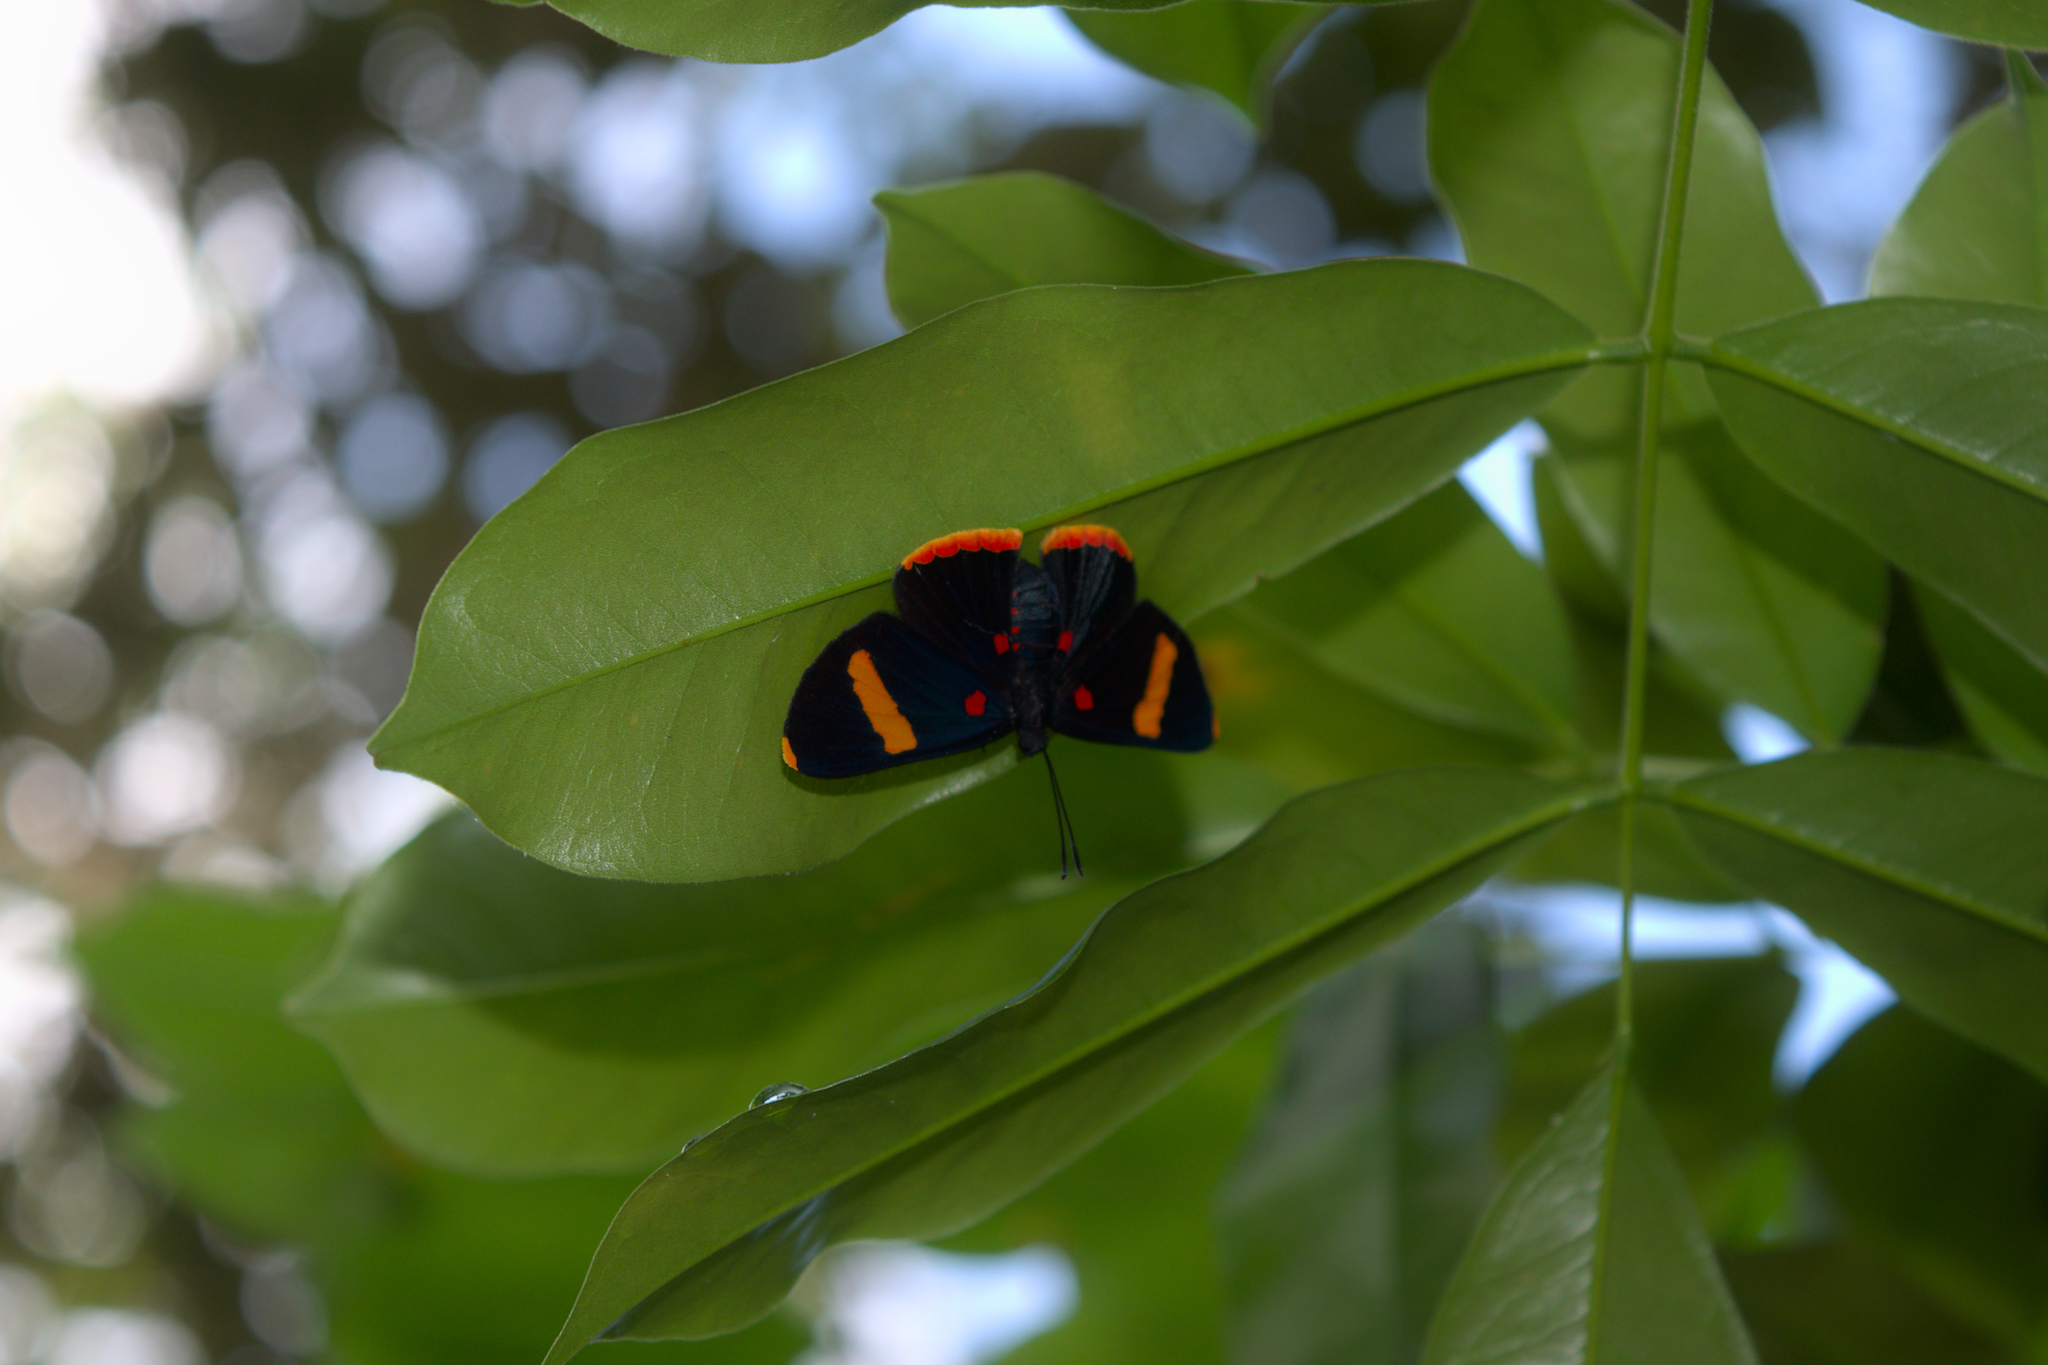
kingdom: Animalia
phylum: Arthropoda
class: Insecta
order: Lepidoptera
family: Lycaenidae
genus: Melanis
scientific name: Melanis electron
